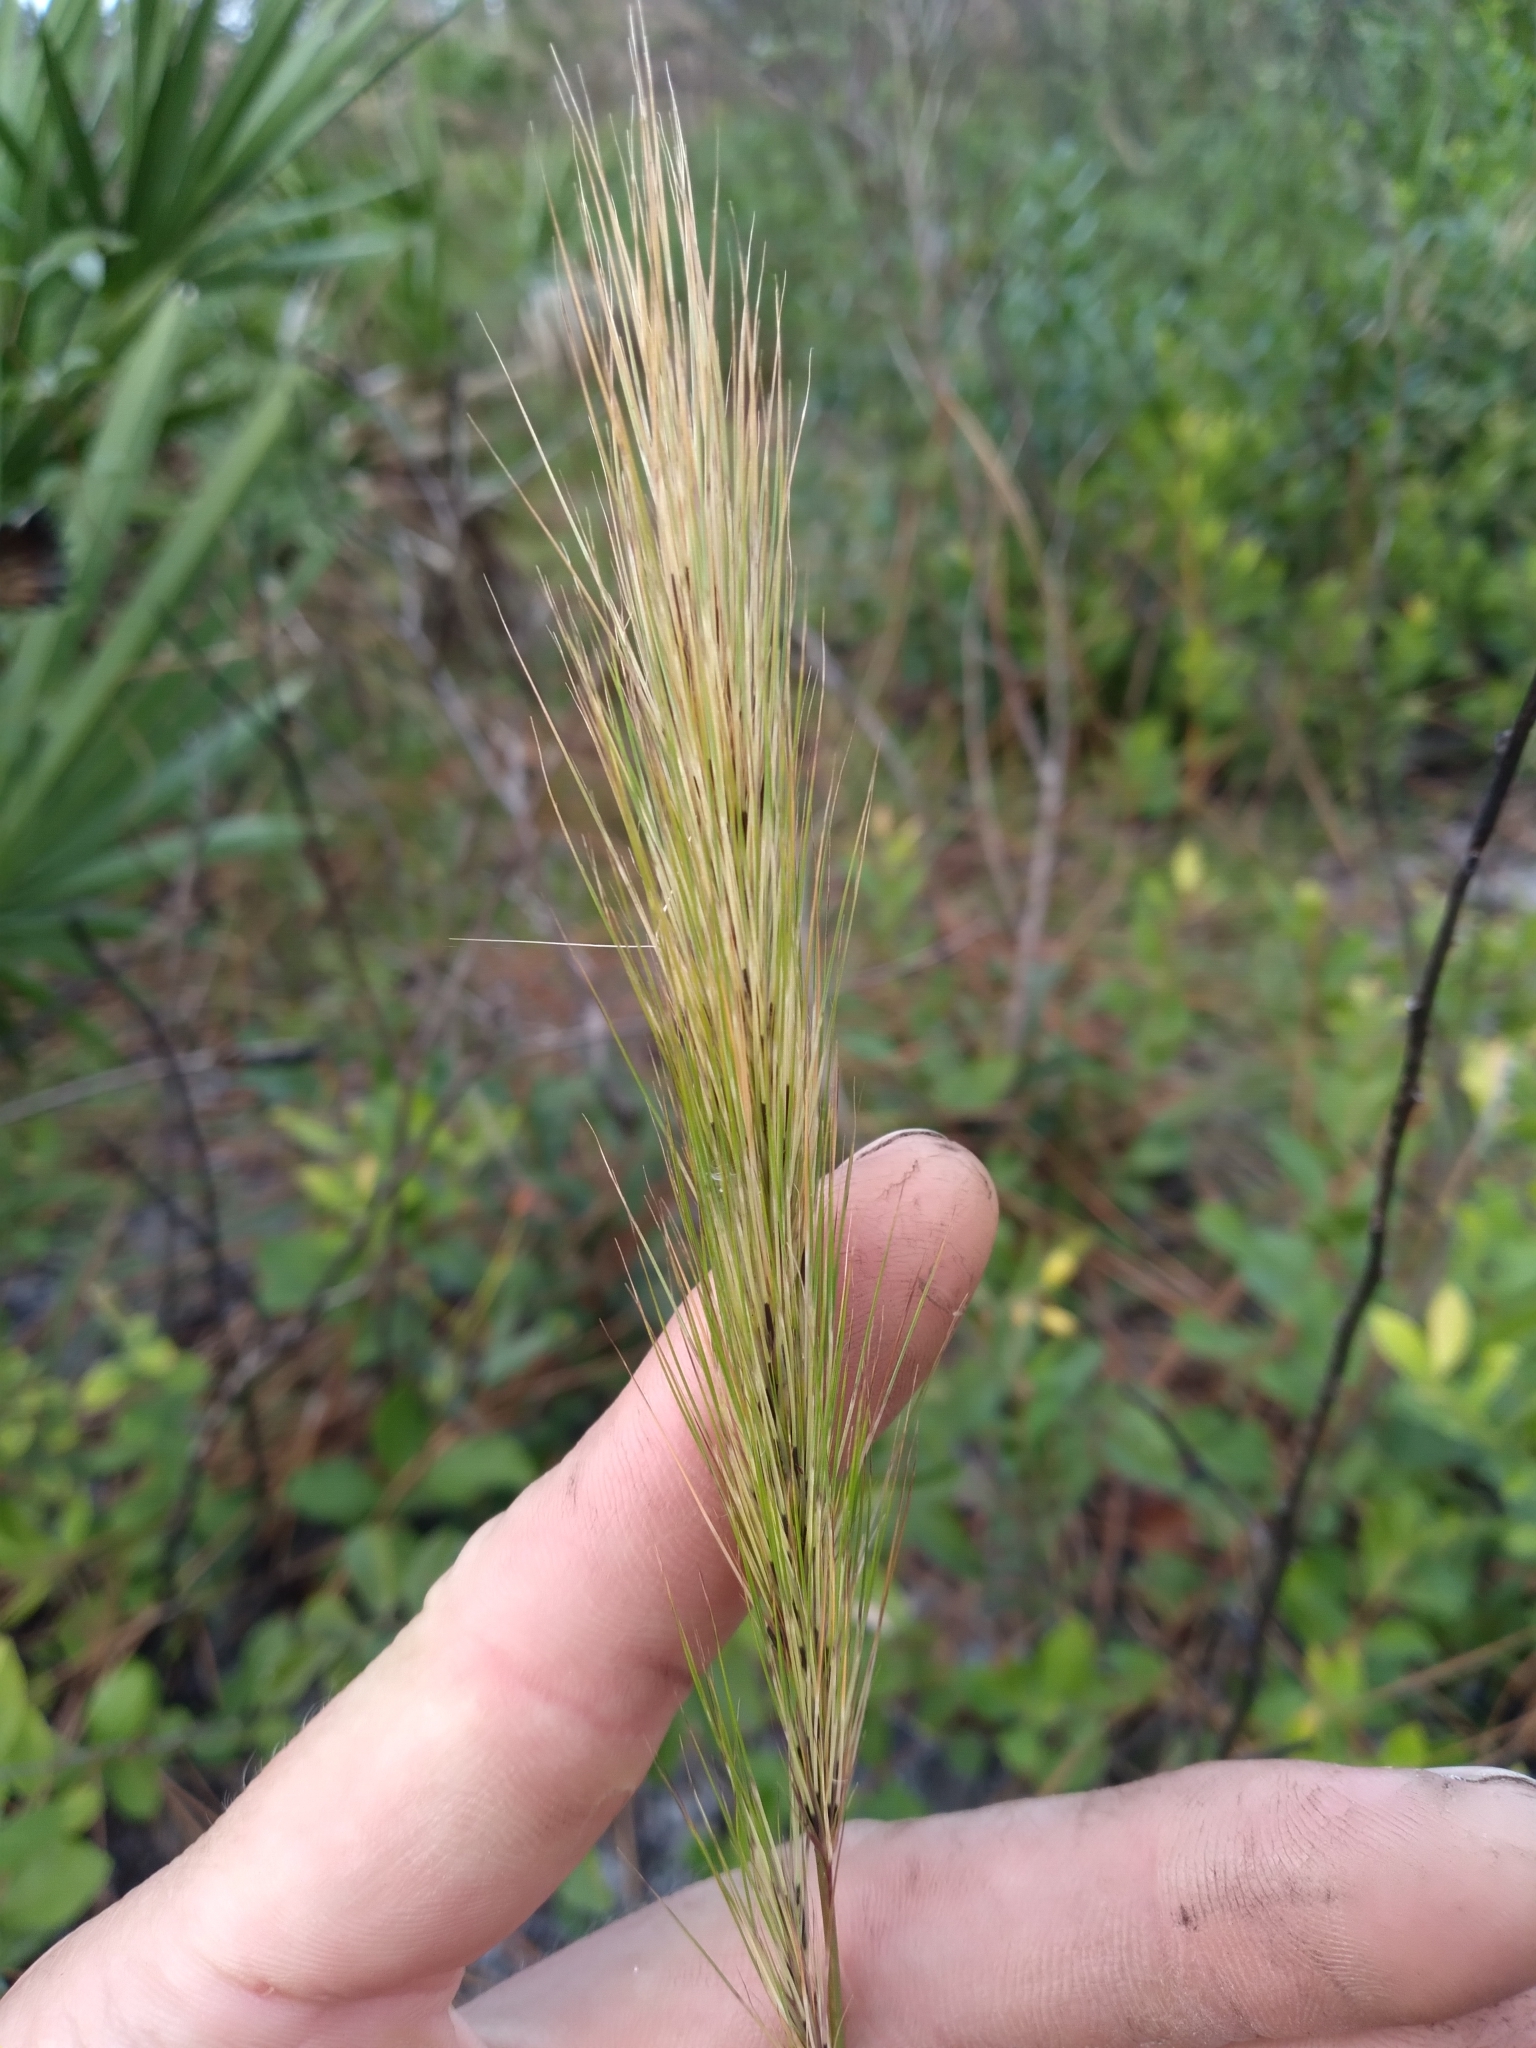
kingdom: Plantae
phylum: Tracheophyta
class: Liliopsida
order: Poales
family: Poaceae
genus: Aristida
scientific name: Aristida spiciformis
